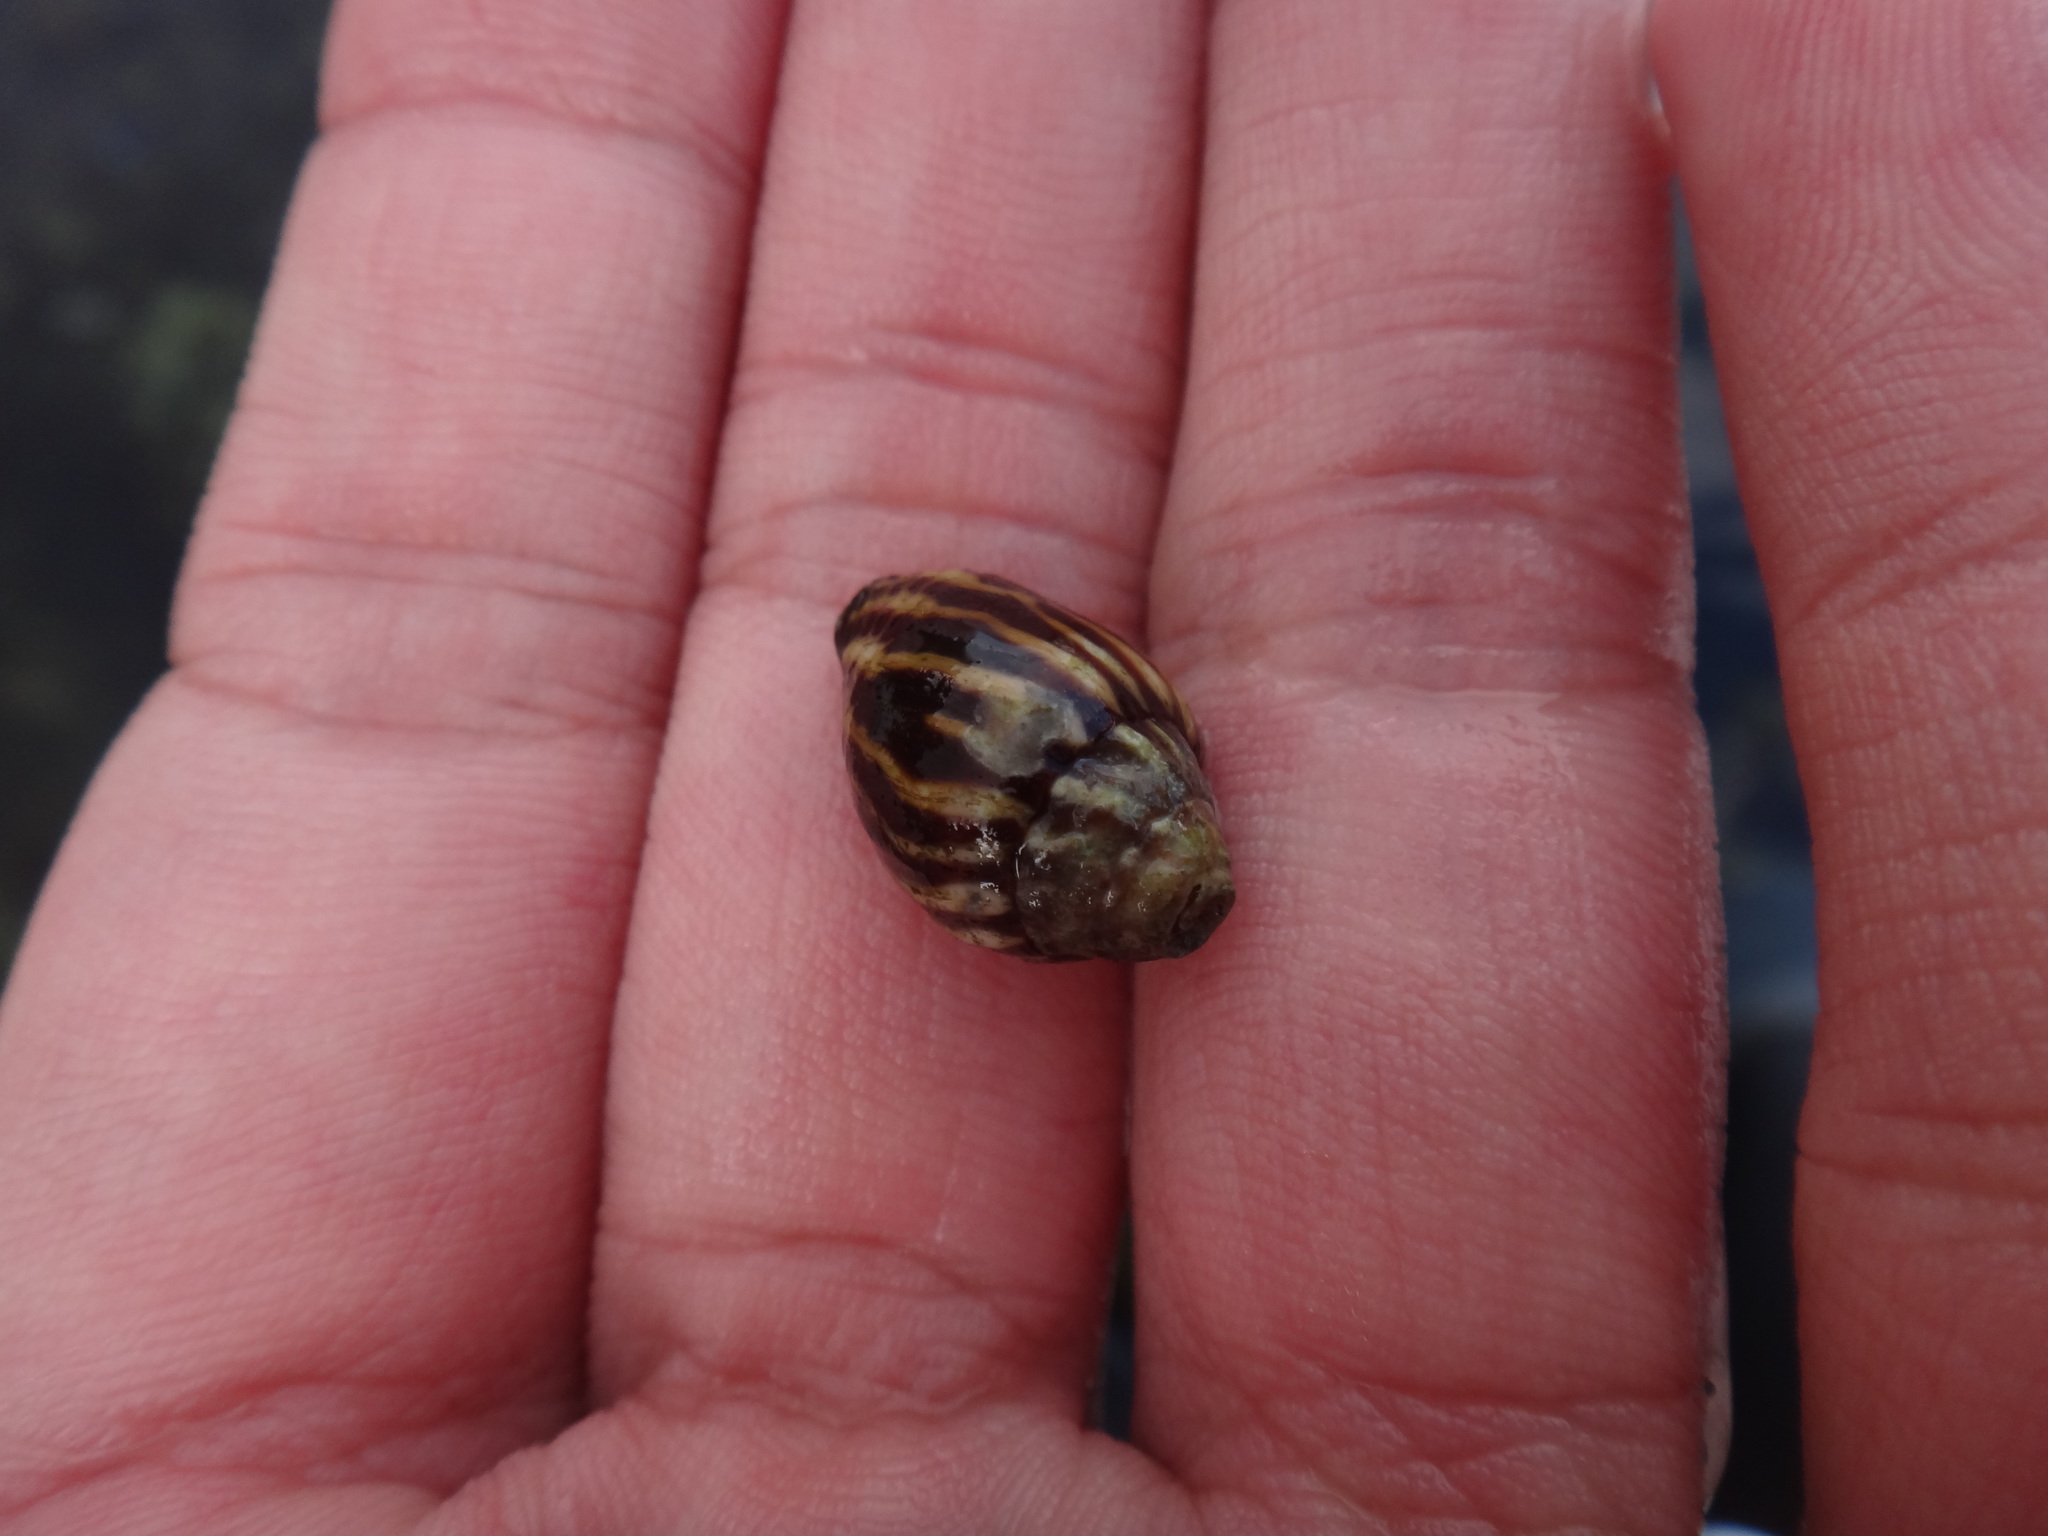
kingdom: Animalia
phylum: Mollusca
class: Gastropoda
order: Neogastropoda
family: Mitridae
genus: Strigatella
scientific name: Strigatella litterata
